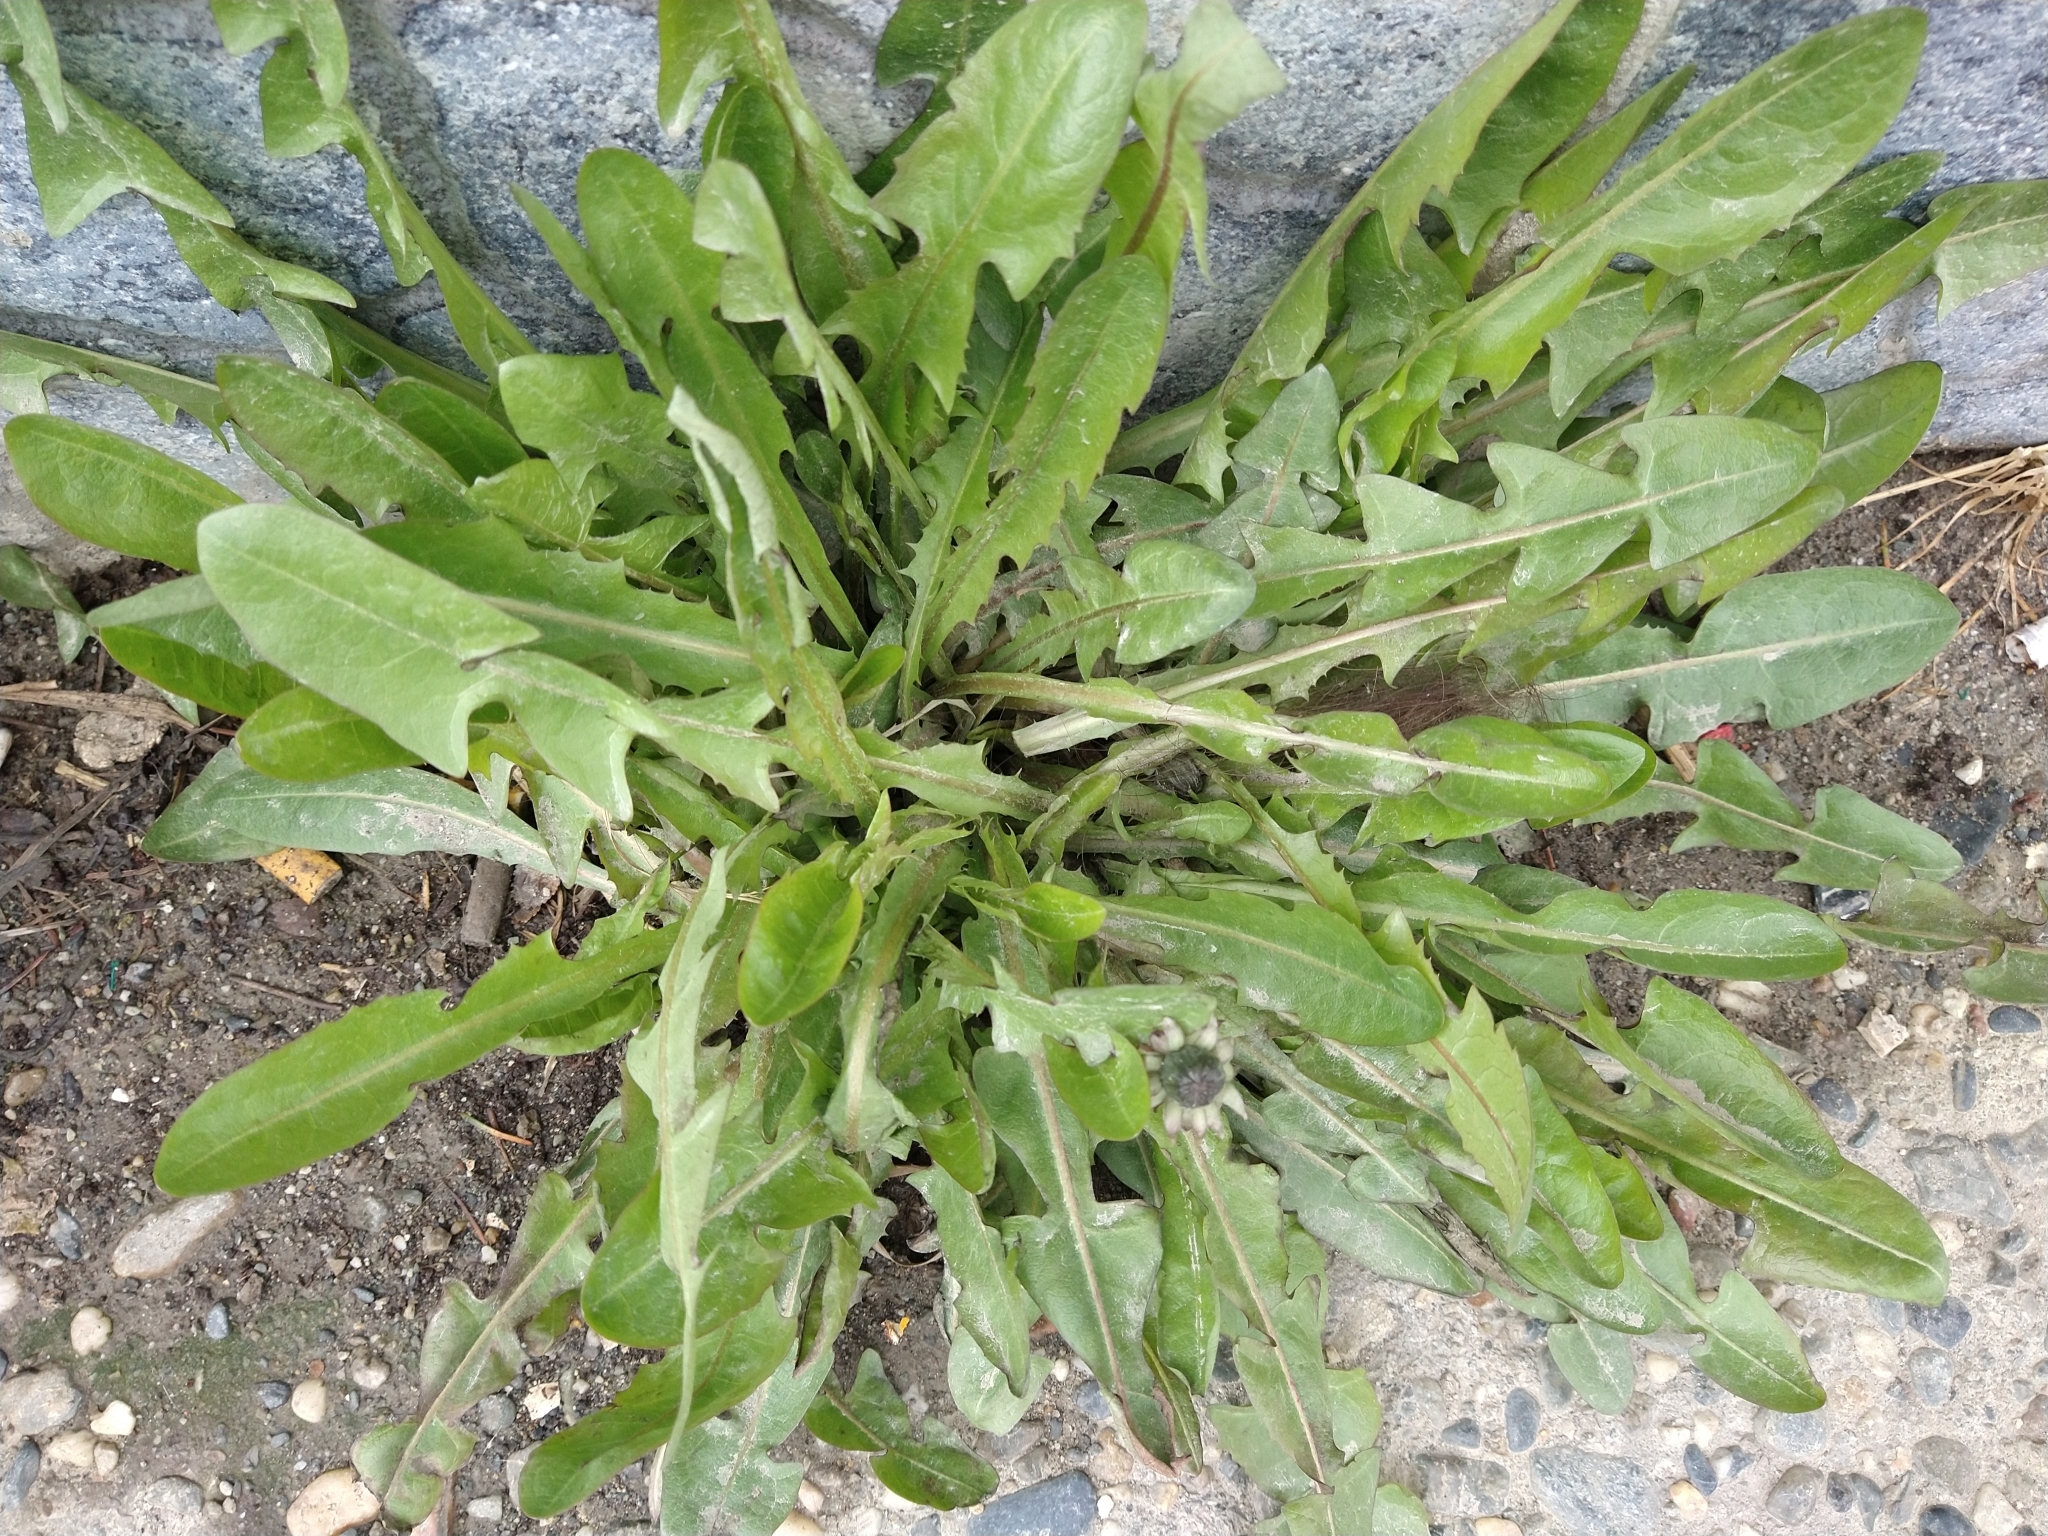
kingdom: Plantae
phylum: Tracheophyta
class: Magnoliopsida
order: Asterales
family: Asteraceae
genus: Taraxacum
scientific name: Taraxacum officinale
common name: Common dandelion
